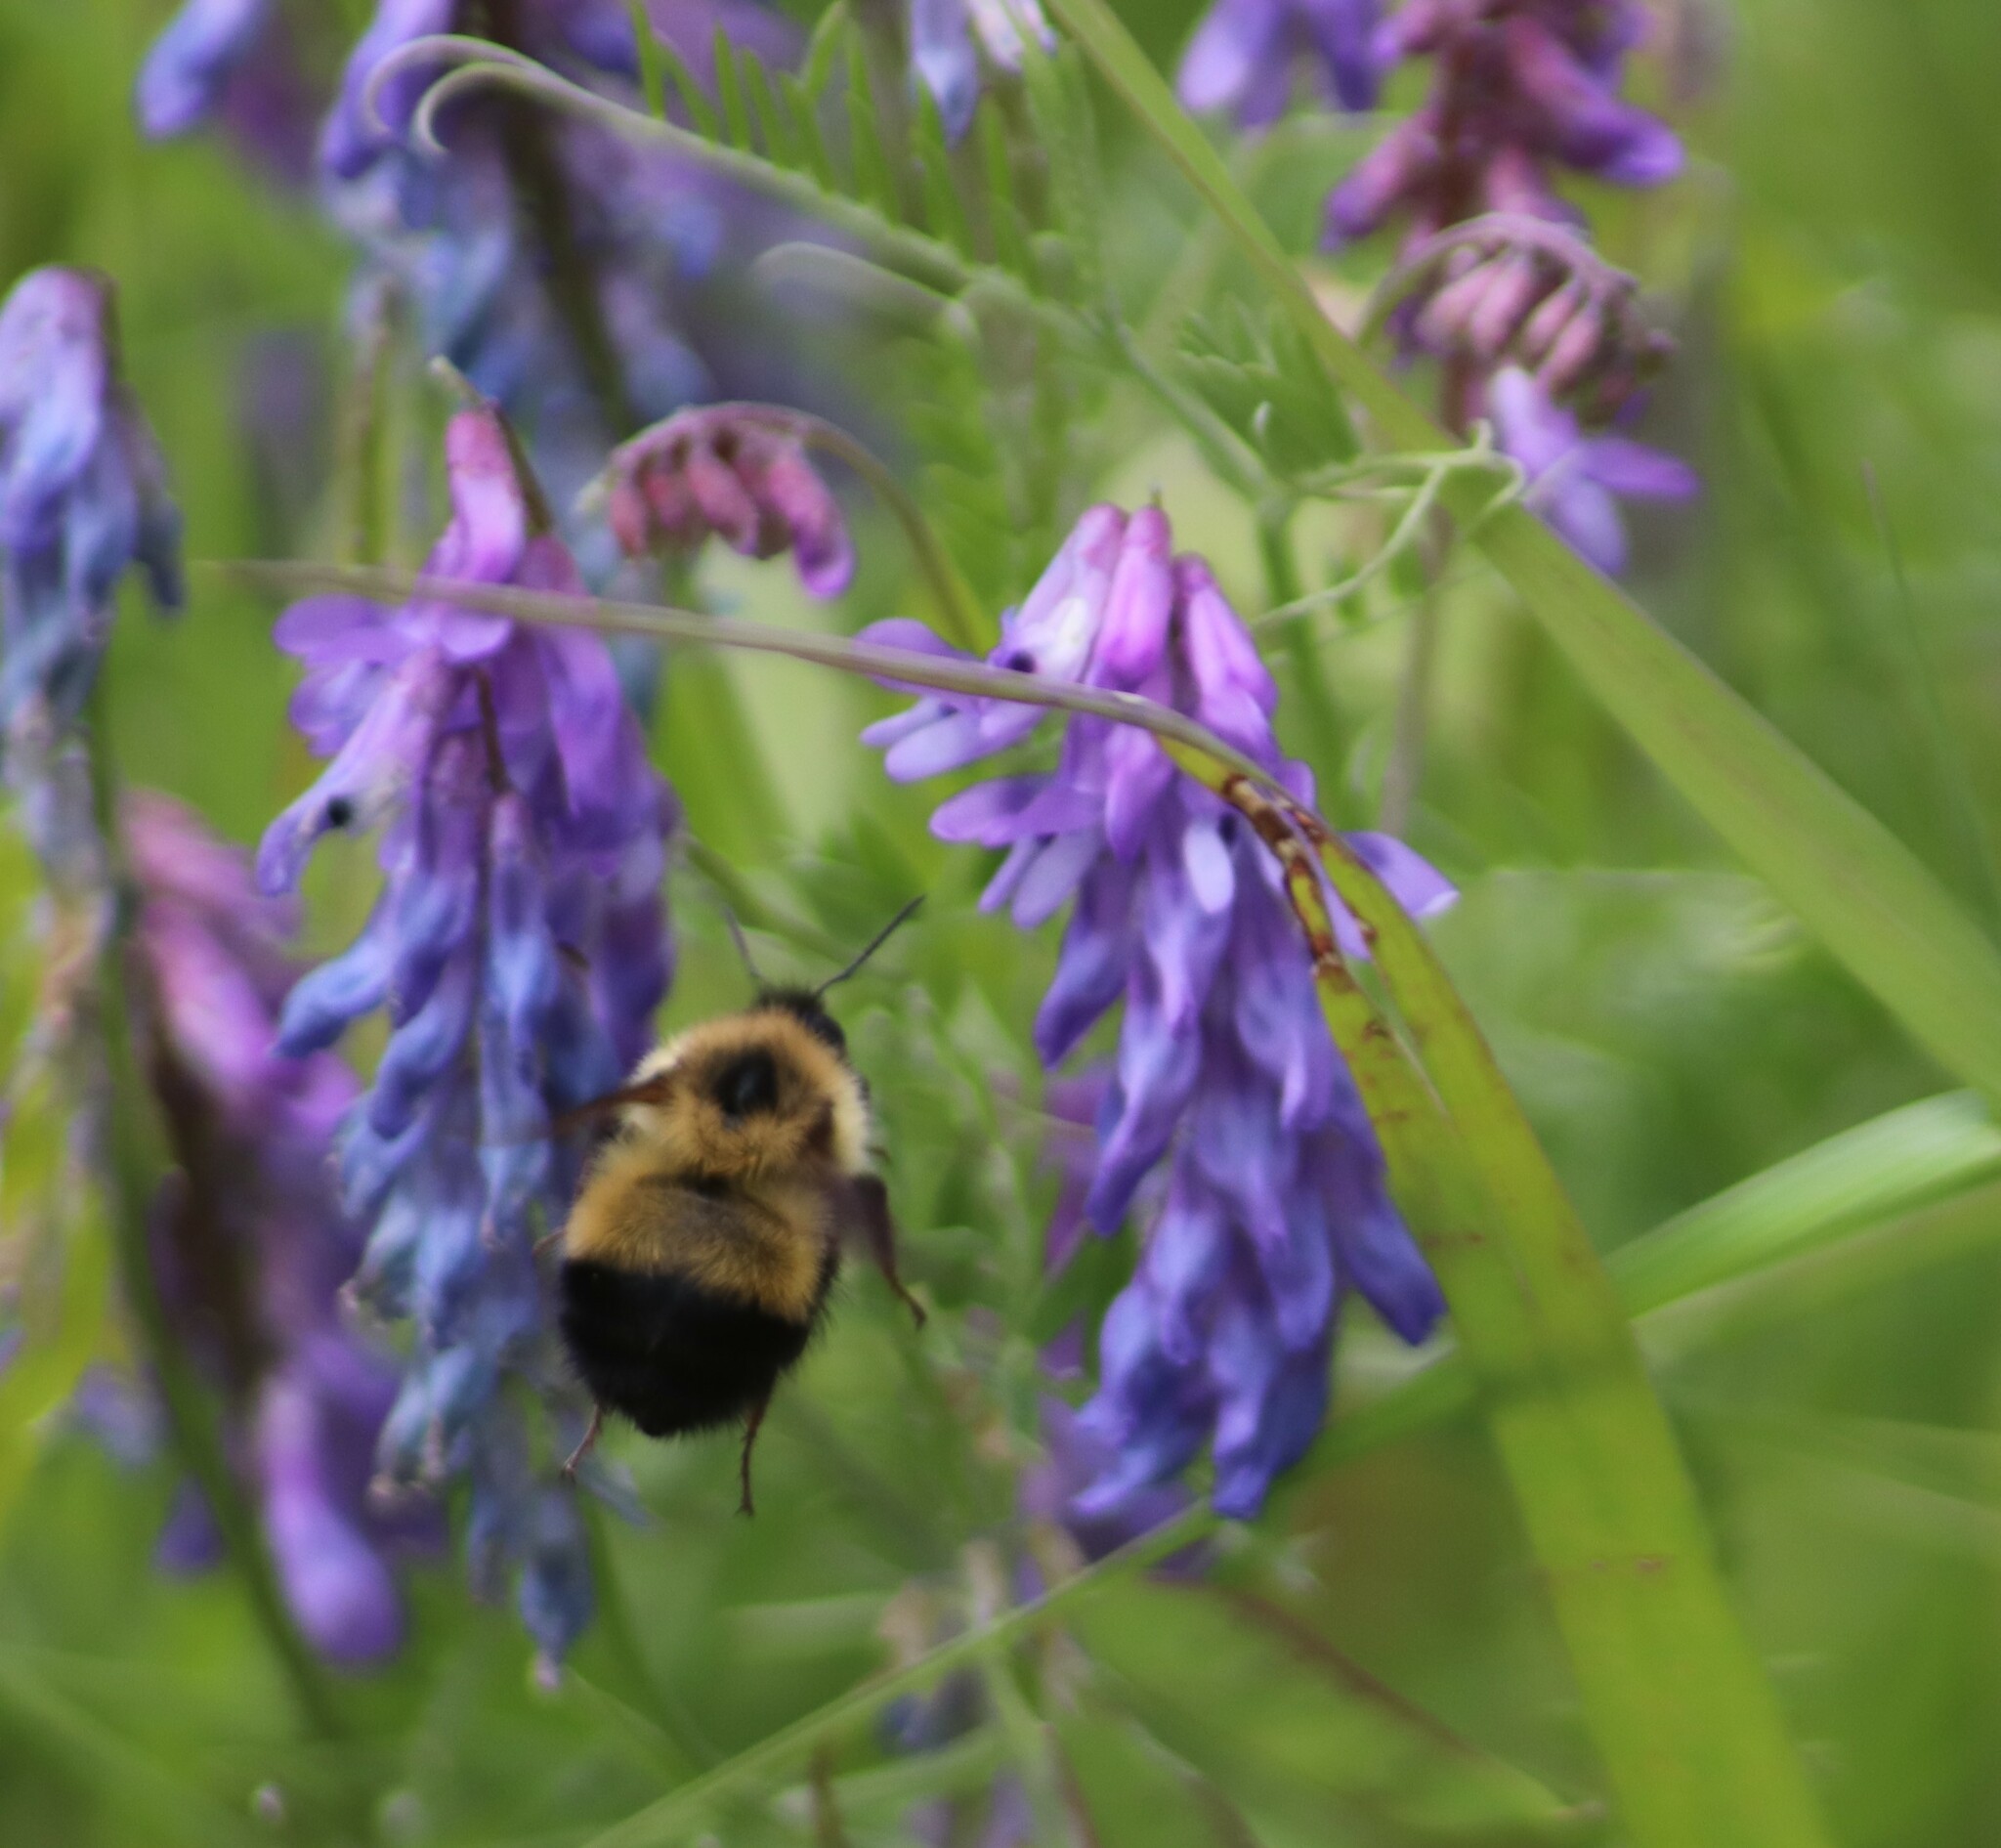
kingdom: Animalia
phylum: Arthropoda
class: Insecta
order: Hymenoptera
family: Apidae
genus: Pyrobombus
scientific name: Pyrobombus
